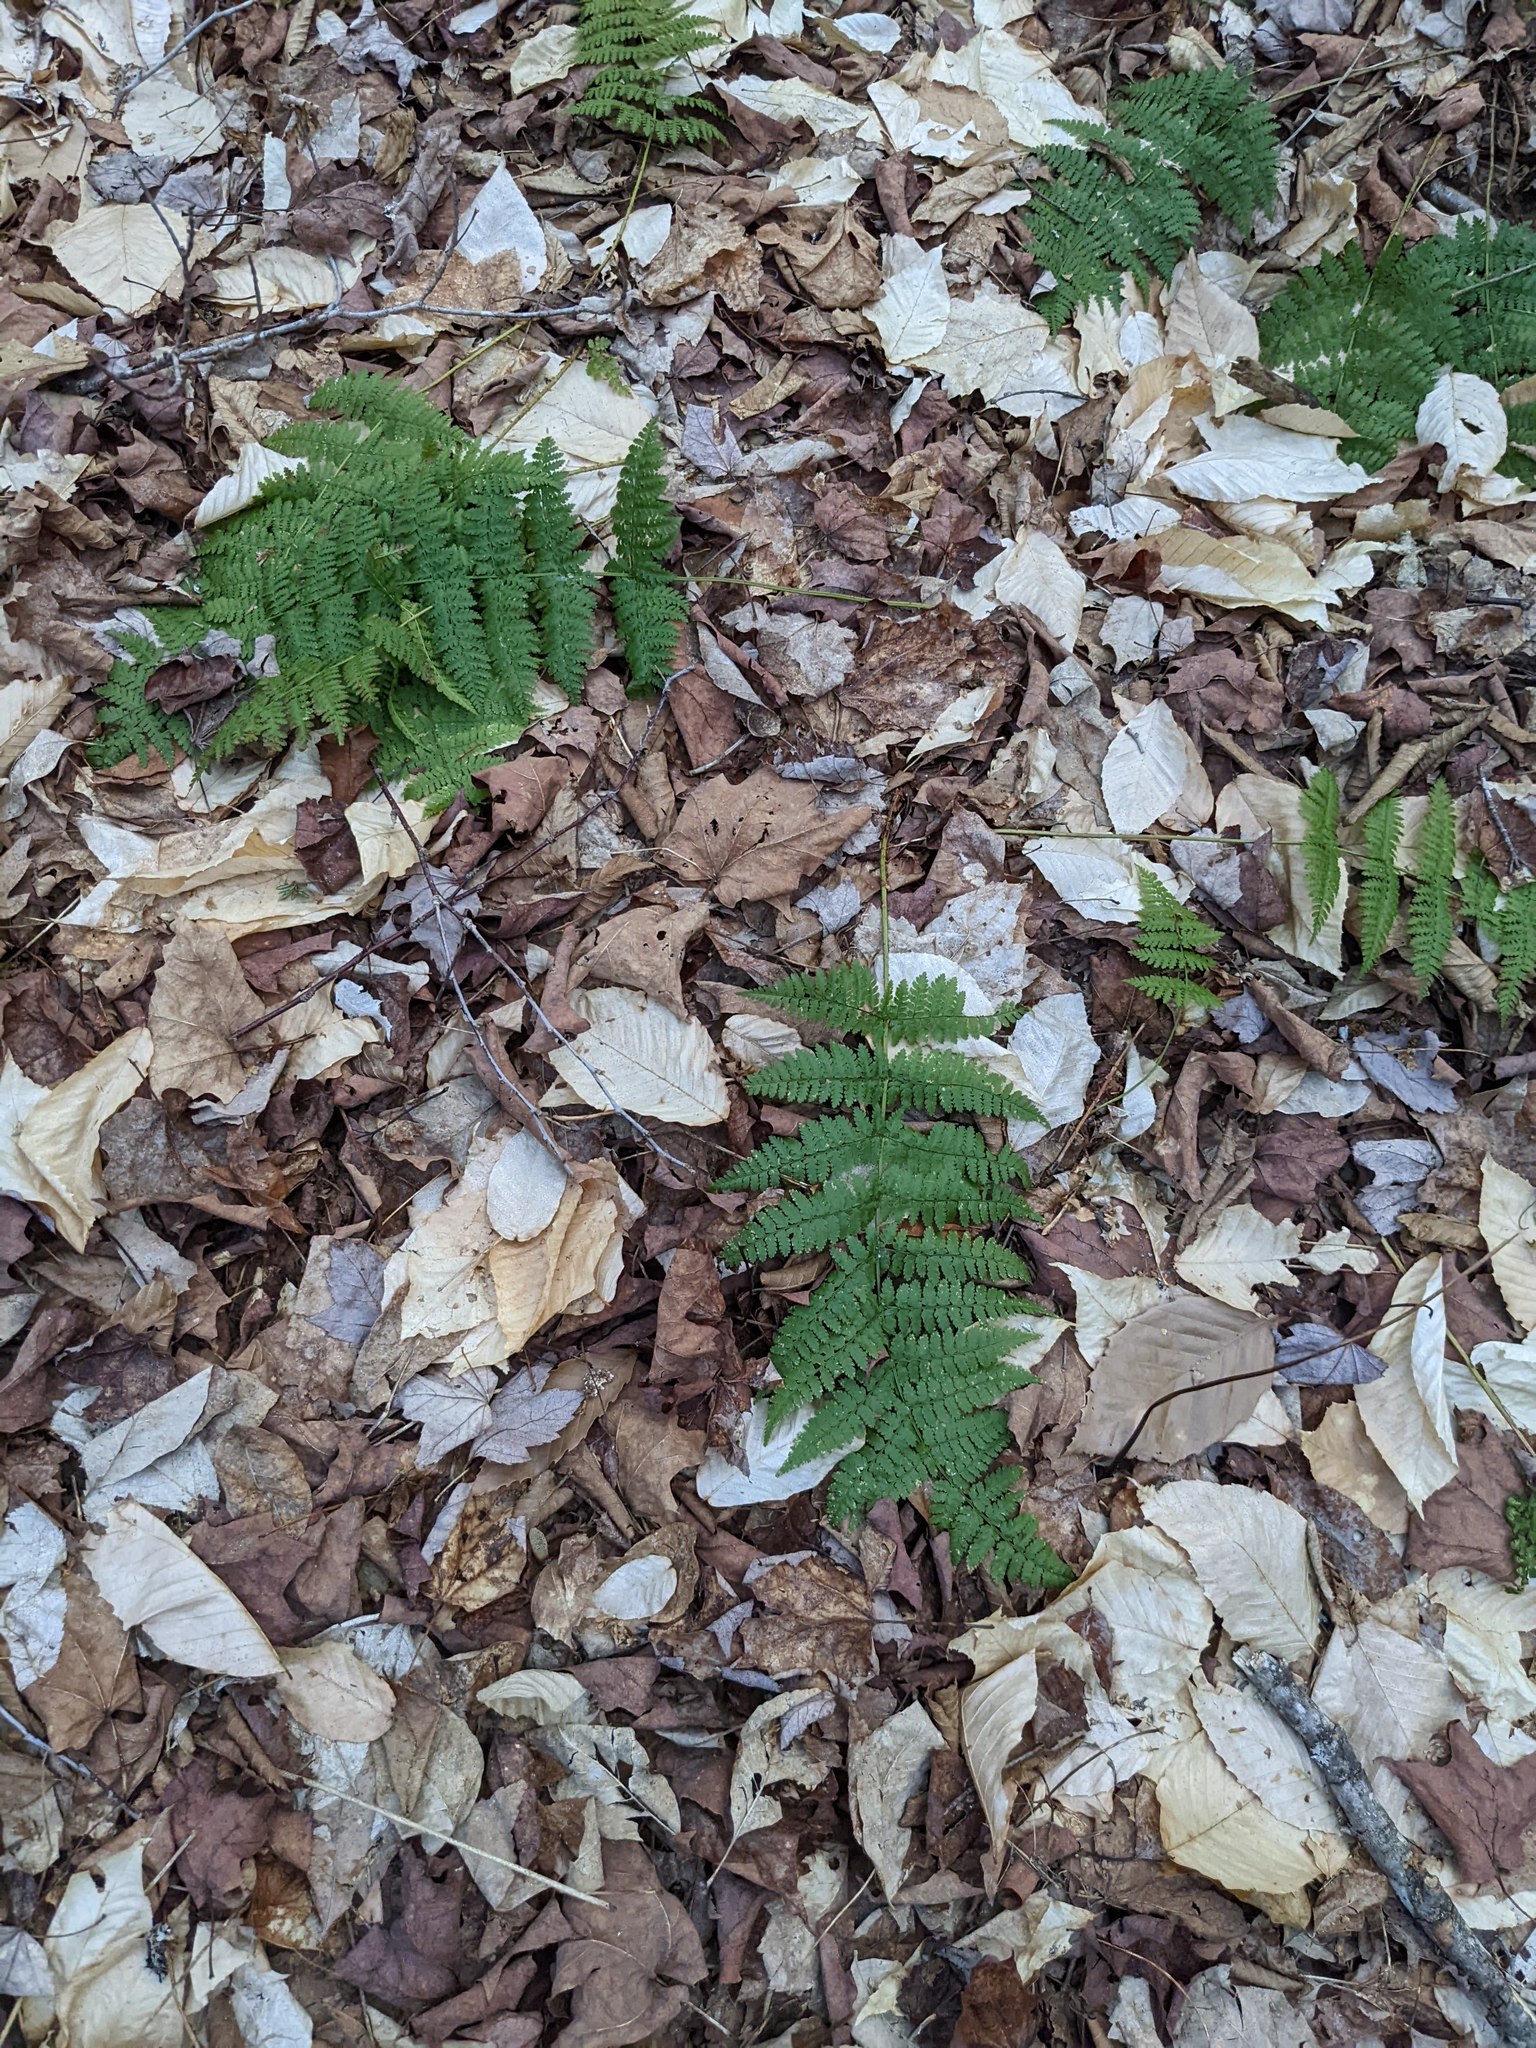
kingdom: Plantae
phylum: Tracheophyta
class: Polypodiopsida
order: Polypodiales
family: Dryopteridaceae
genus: Dryopteris
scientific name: Dryopteris intermedia
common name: Evergreen wood fern
